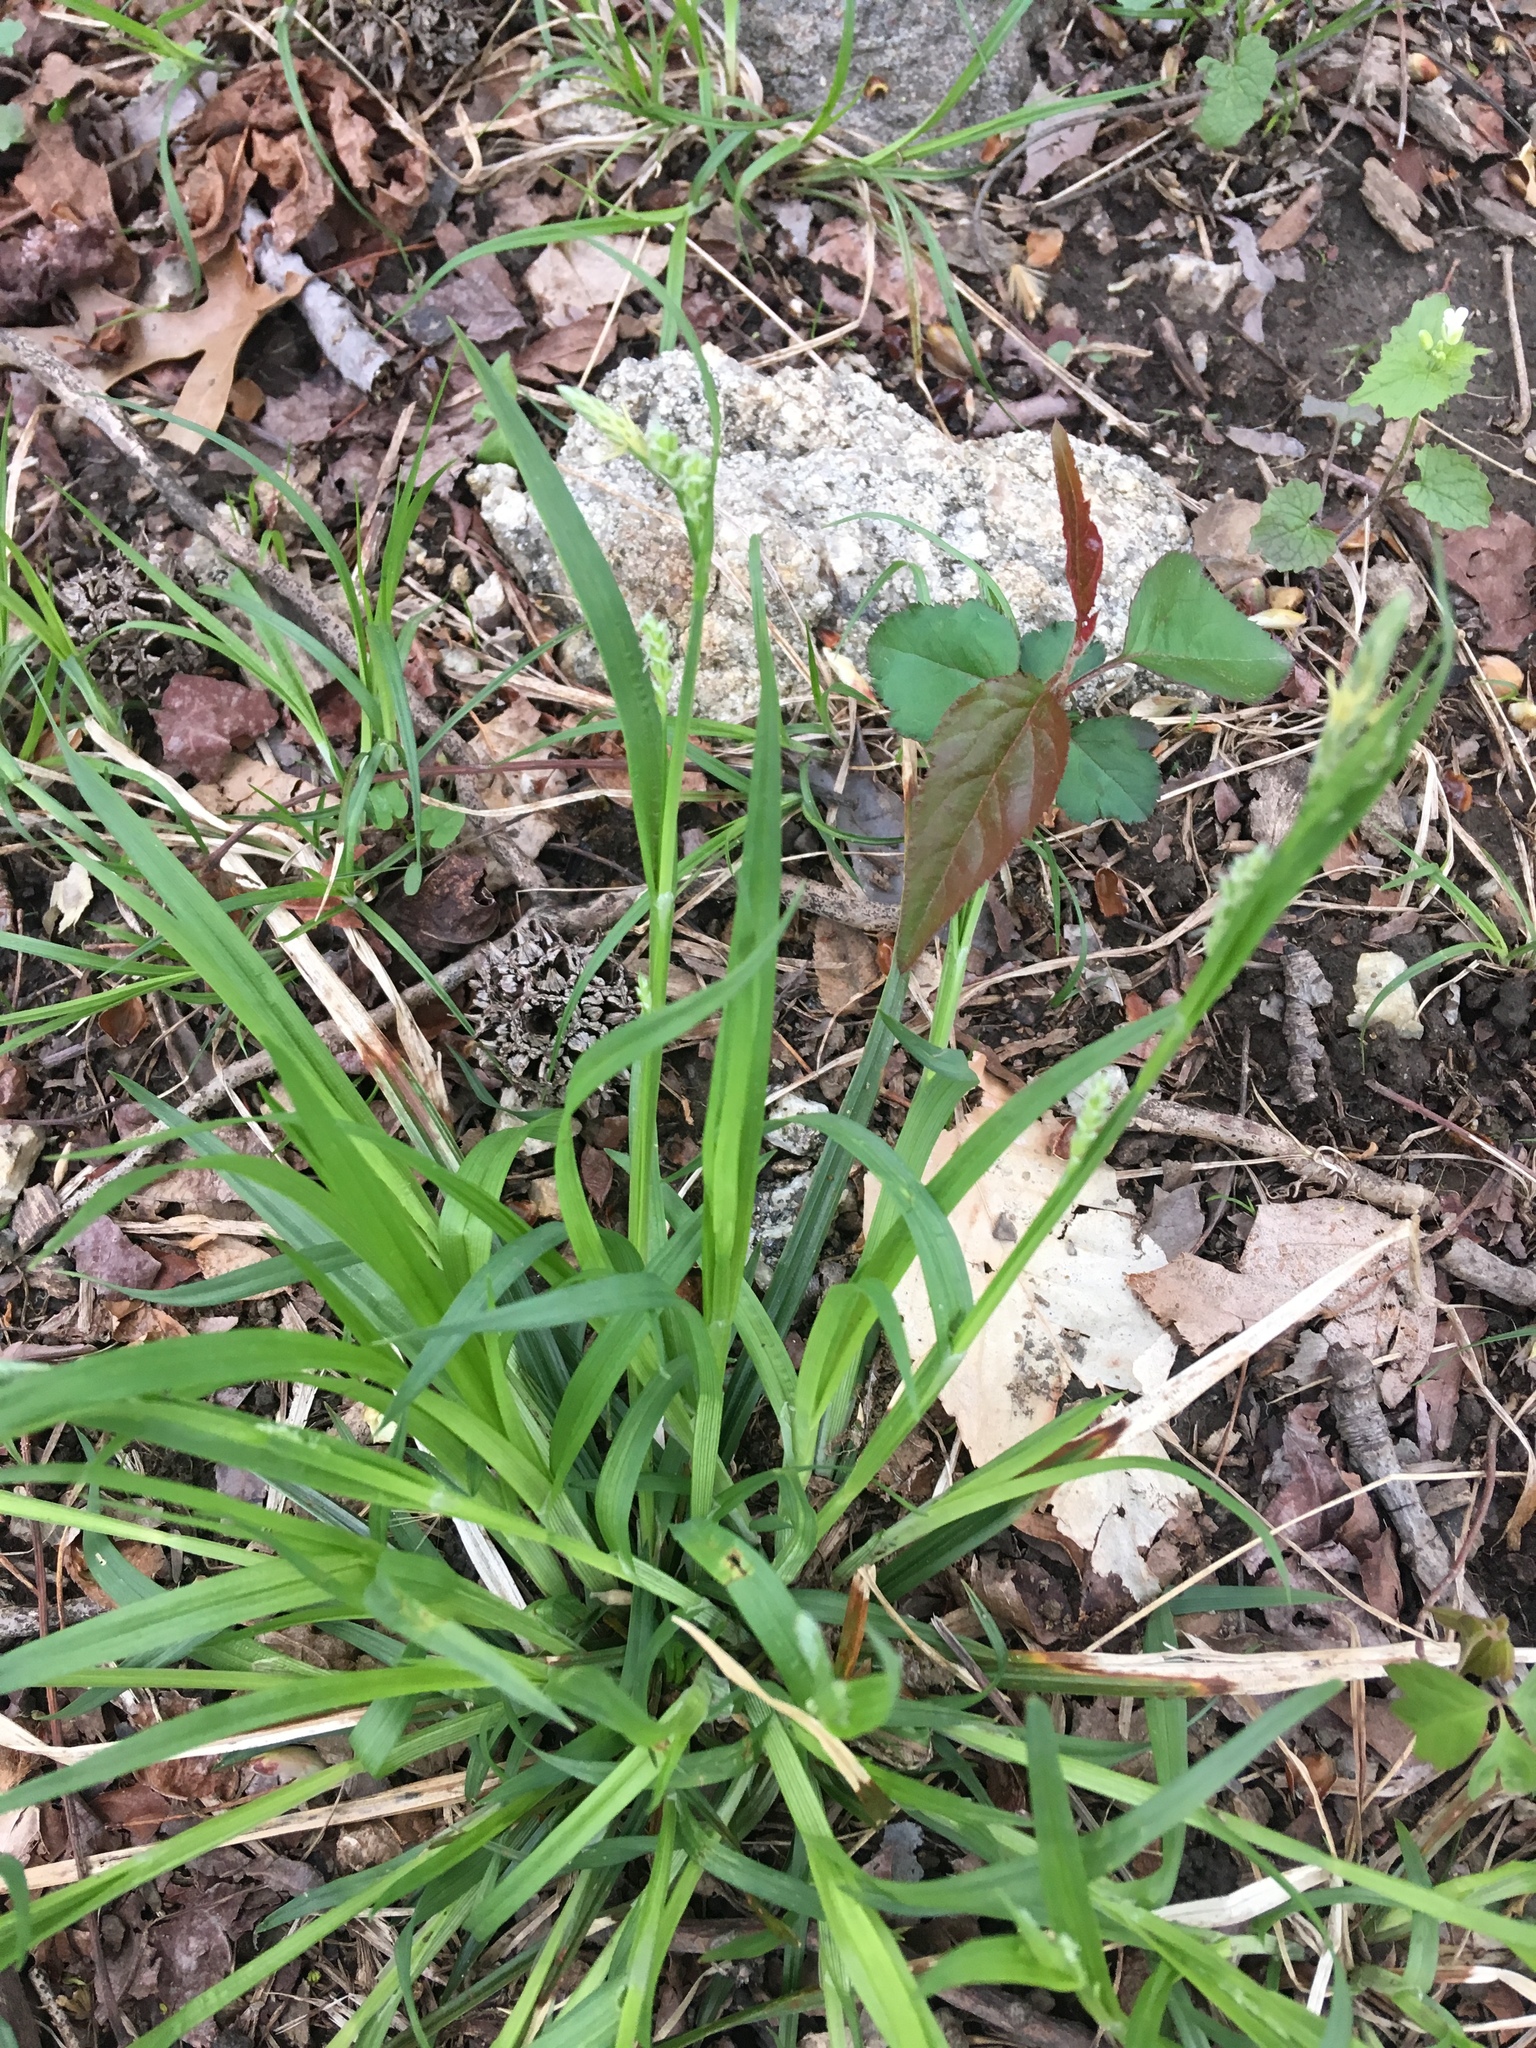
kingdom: Plantae
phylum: Tracheophyta
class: Liliopsida
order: Poales
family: Cyperaceae
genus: Carex
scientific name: Carex blanda
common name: Bland sedge
